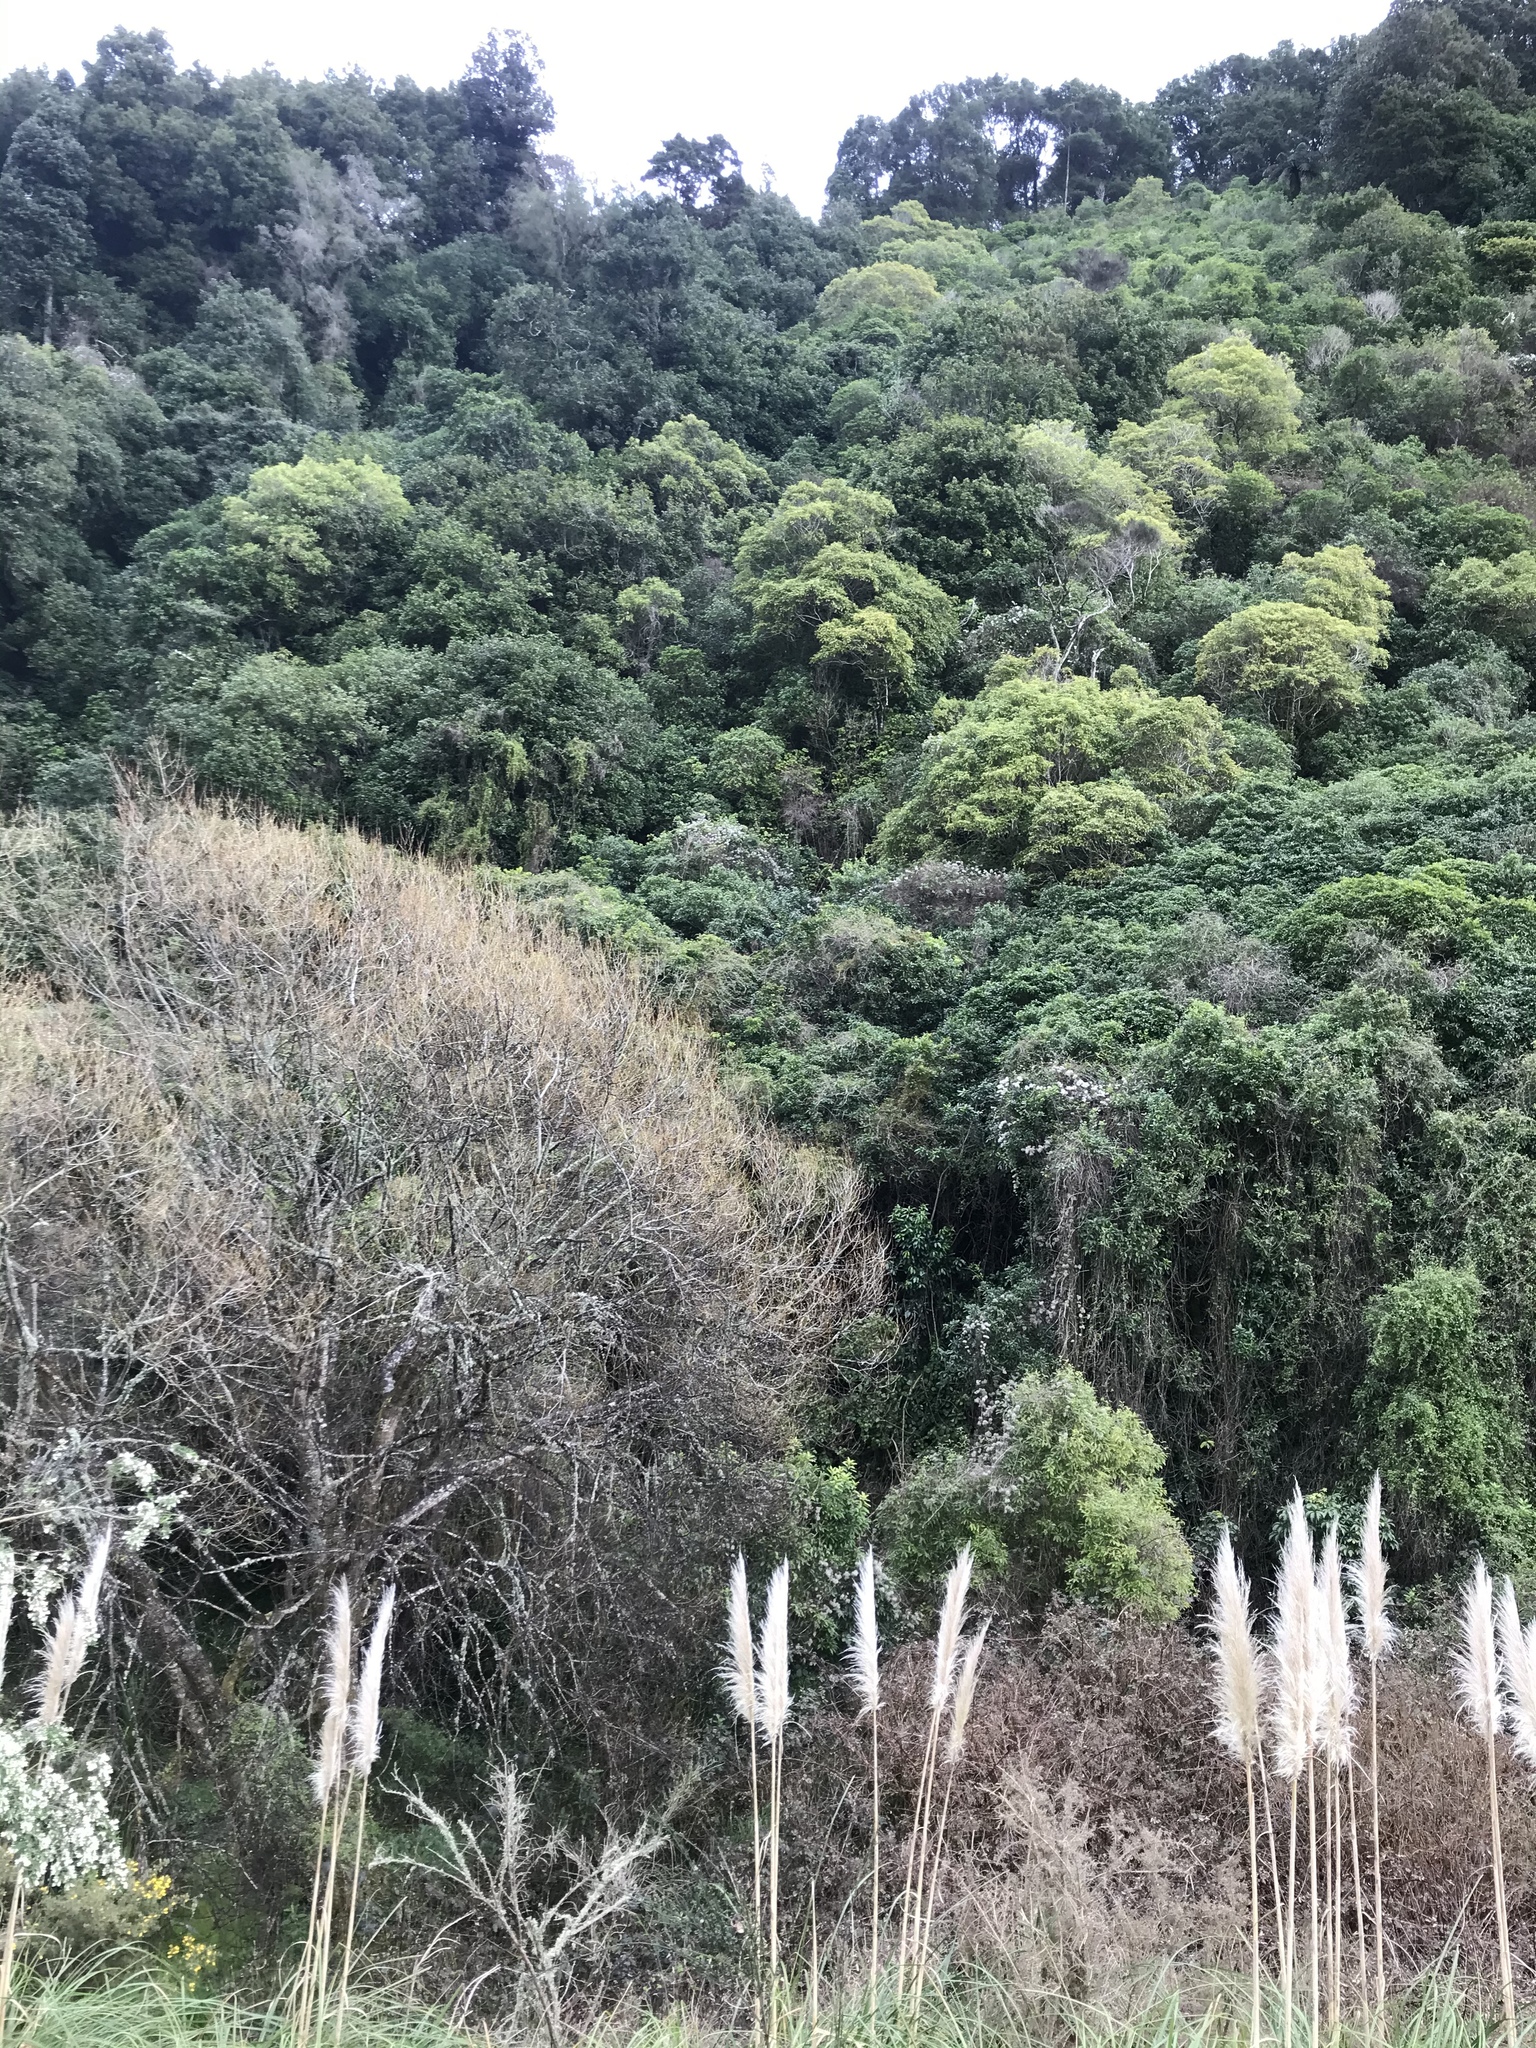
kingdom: Plantae
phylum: Tracheophyta
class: Magnoliopsida
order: Ranunculales
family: Ranunculaceae
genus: Clematis
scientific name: Clematis vitalba
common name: Evergreen clematis
